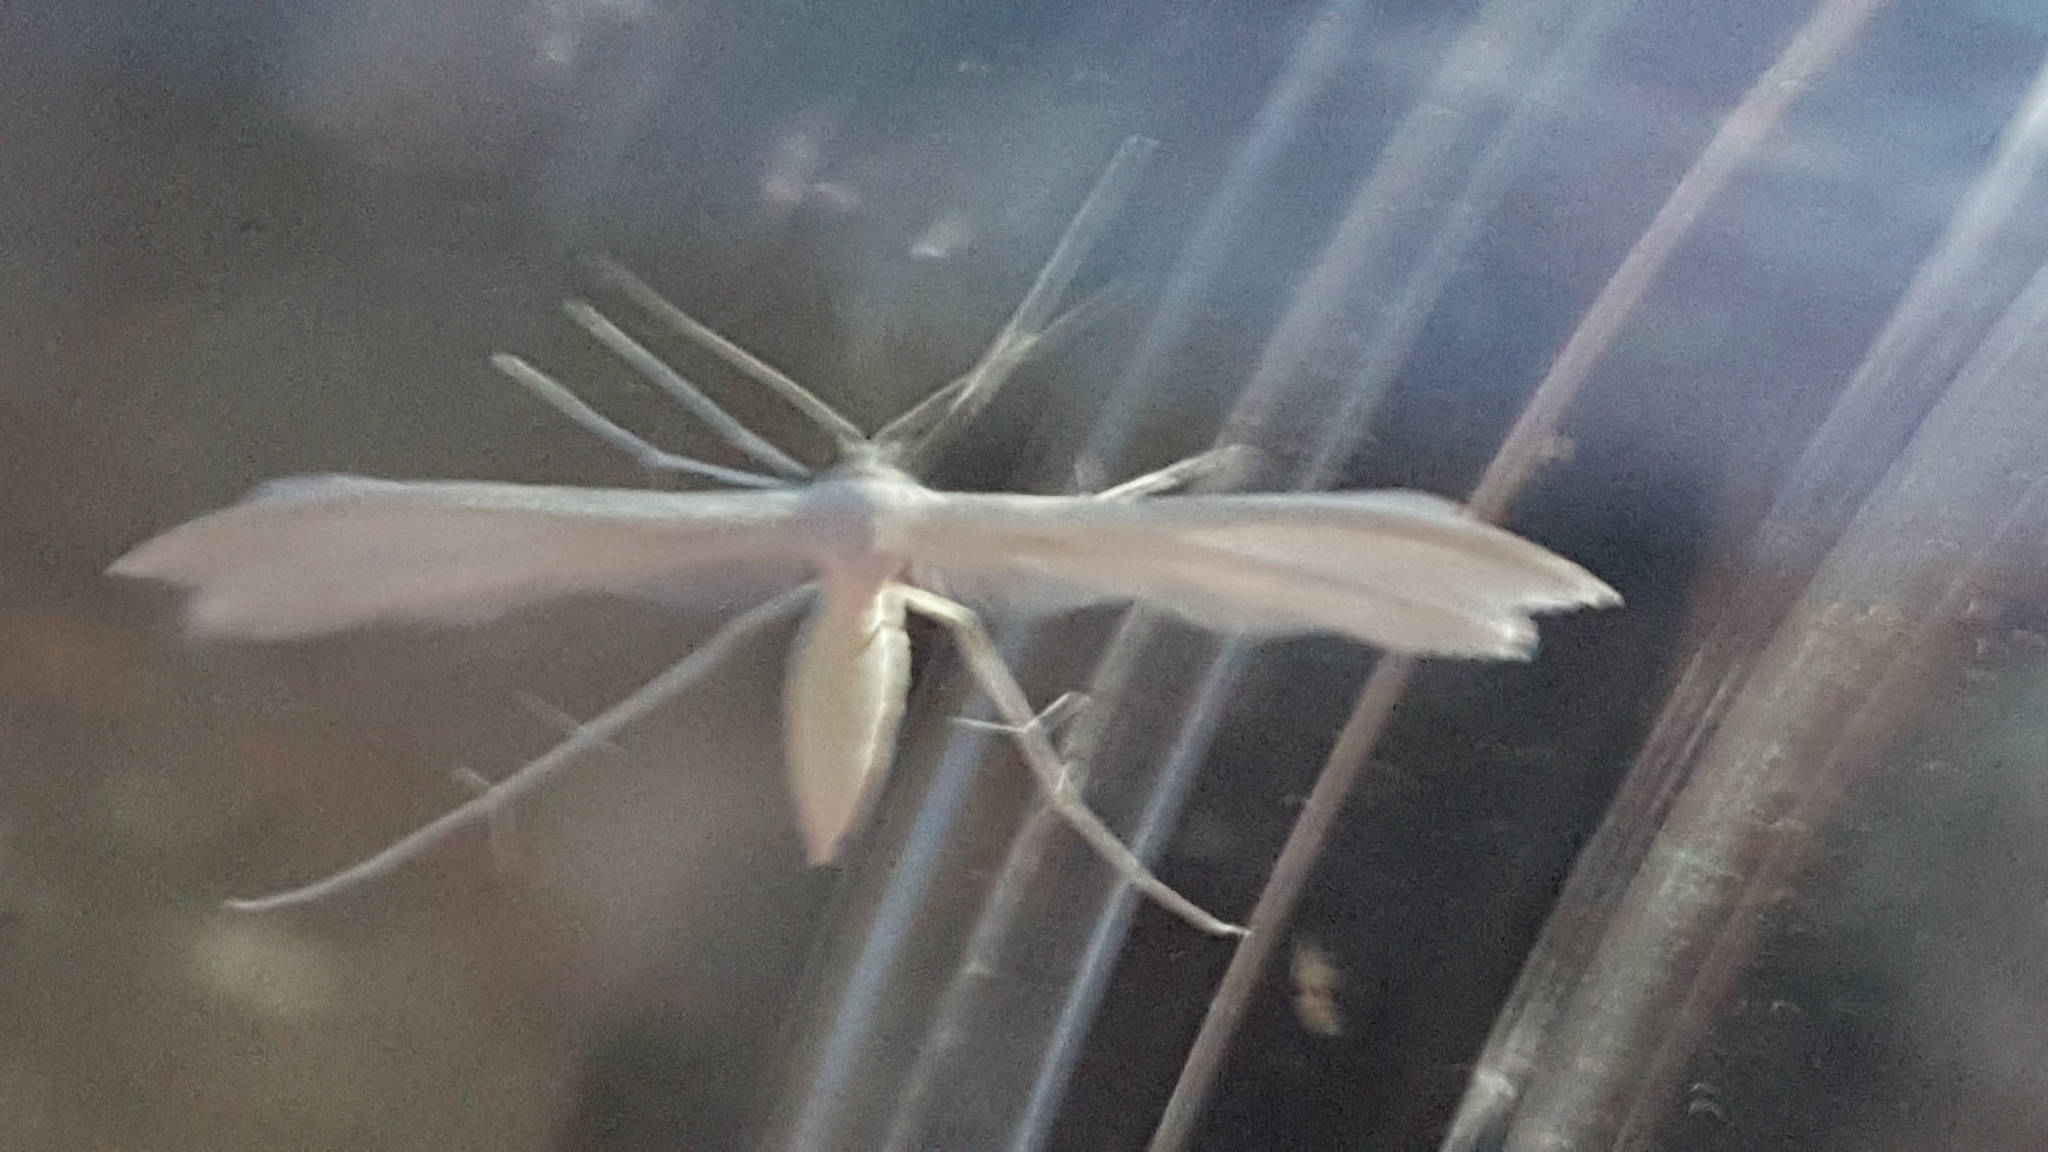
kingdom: Animalia
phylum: Arthropoda
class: Insecta
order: Lepidoptera
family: Pterophoridae
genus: Pterophorus
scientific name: Pterophorus pentadactyla
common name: White plume moth
